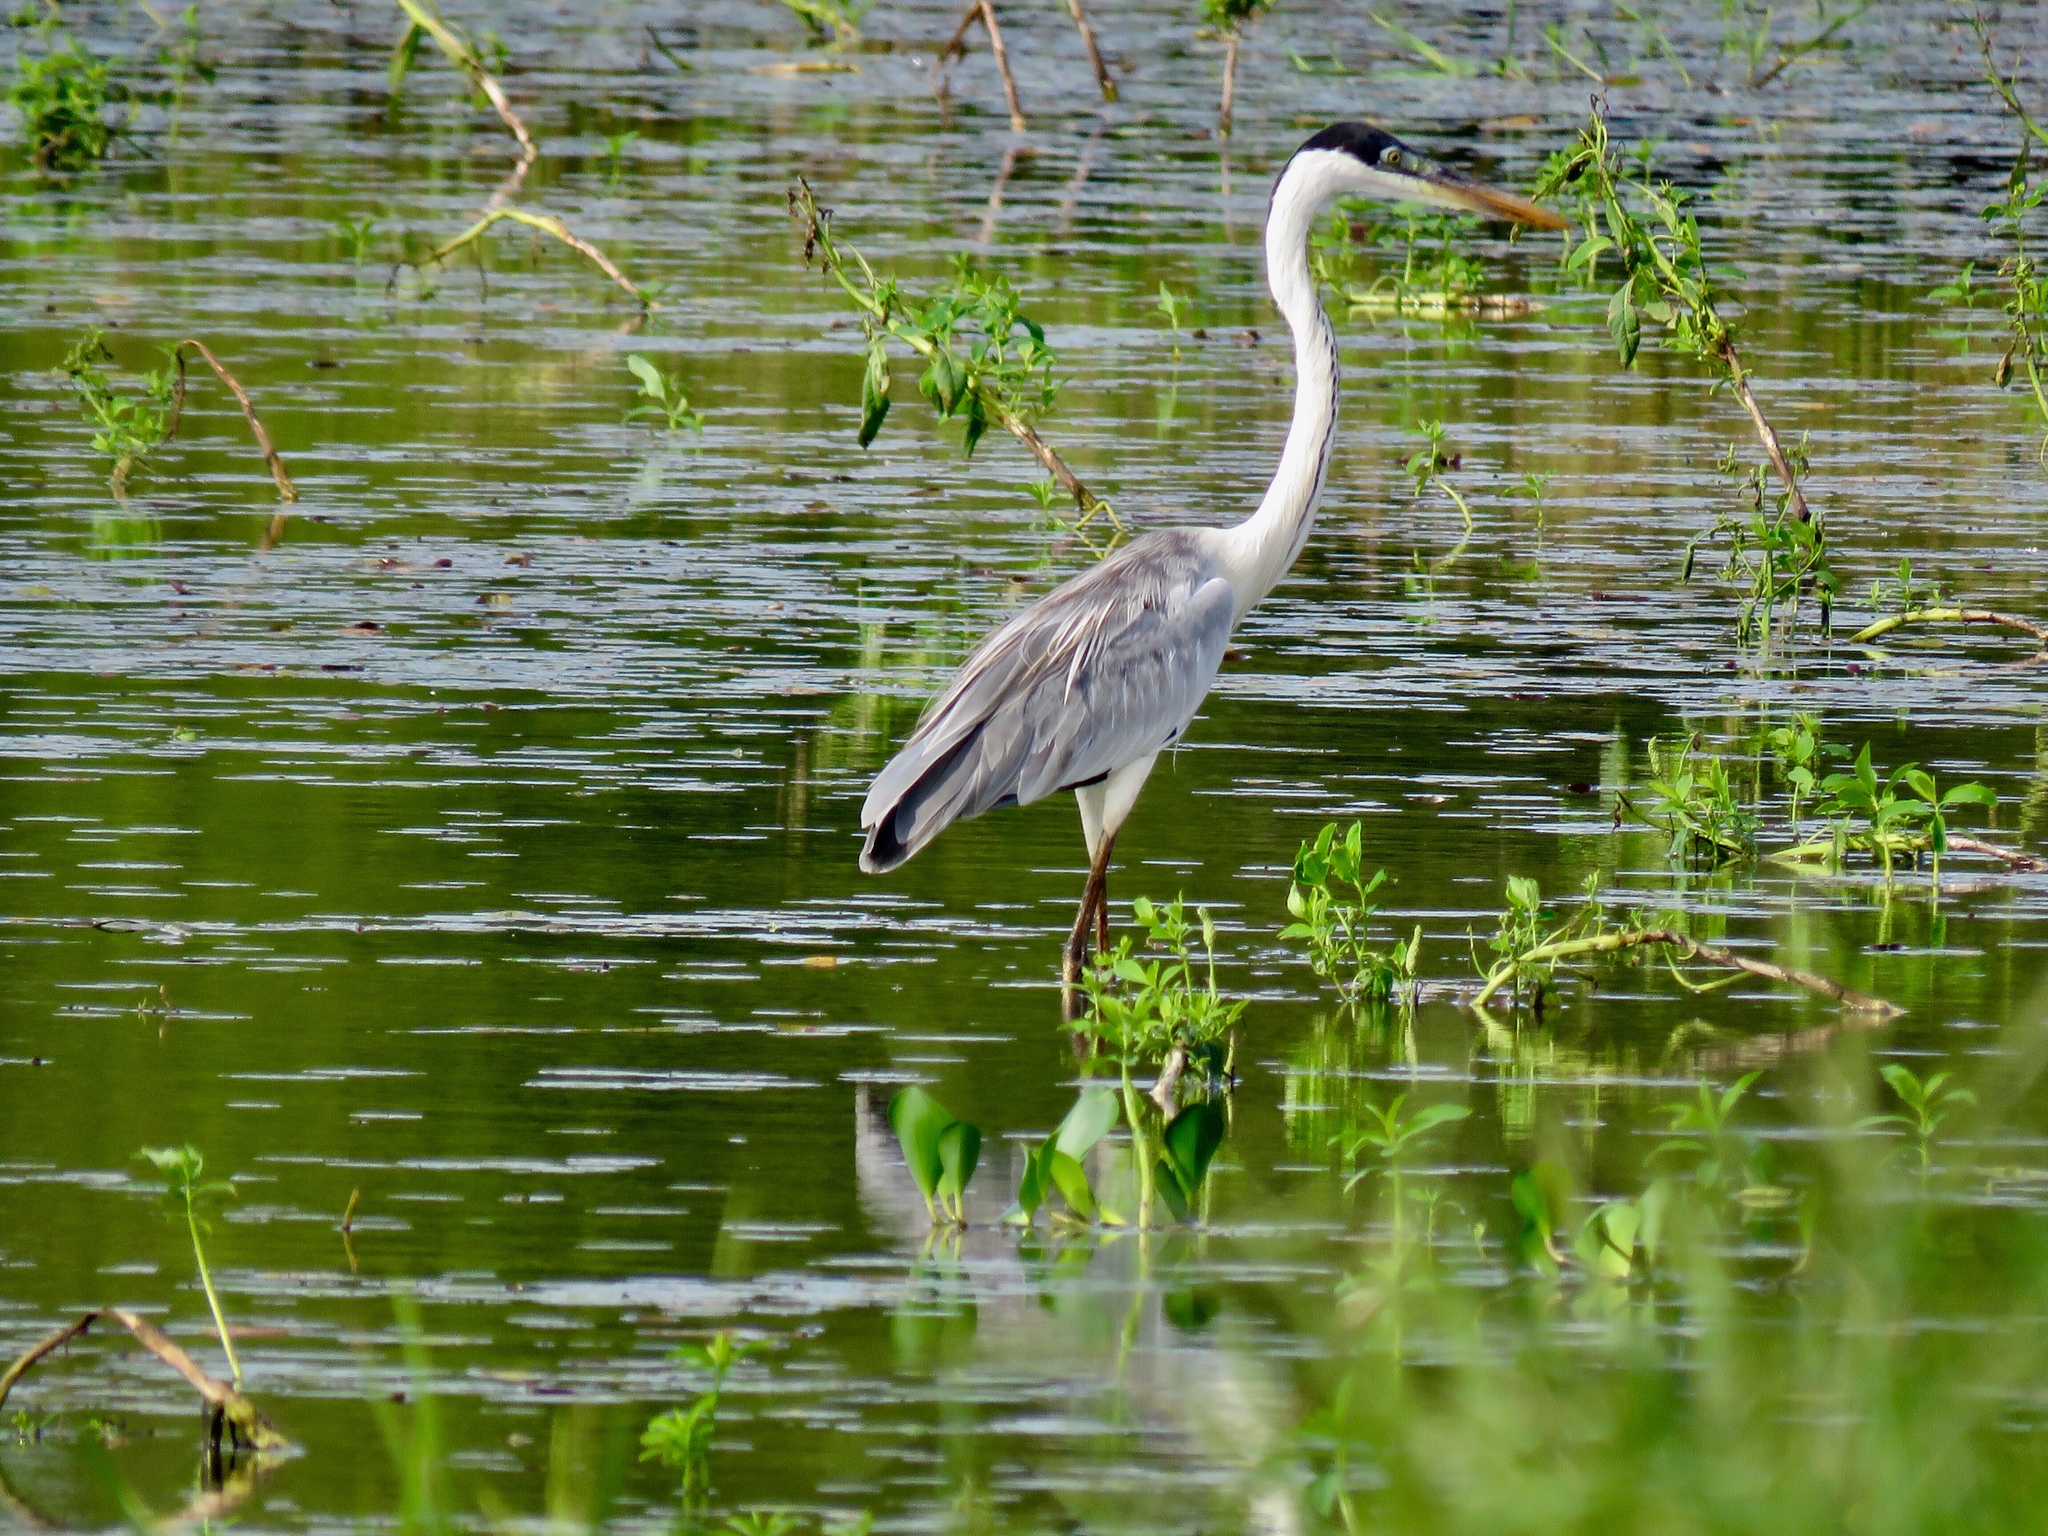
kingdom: Animalia
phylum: Chordata
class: Aves
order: Pelecaniformes
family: Ardeidae
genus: Ardea
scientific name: Ardea cocoi
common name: Cocoi heron
